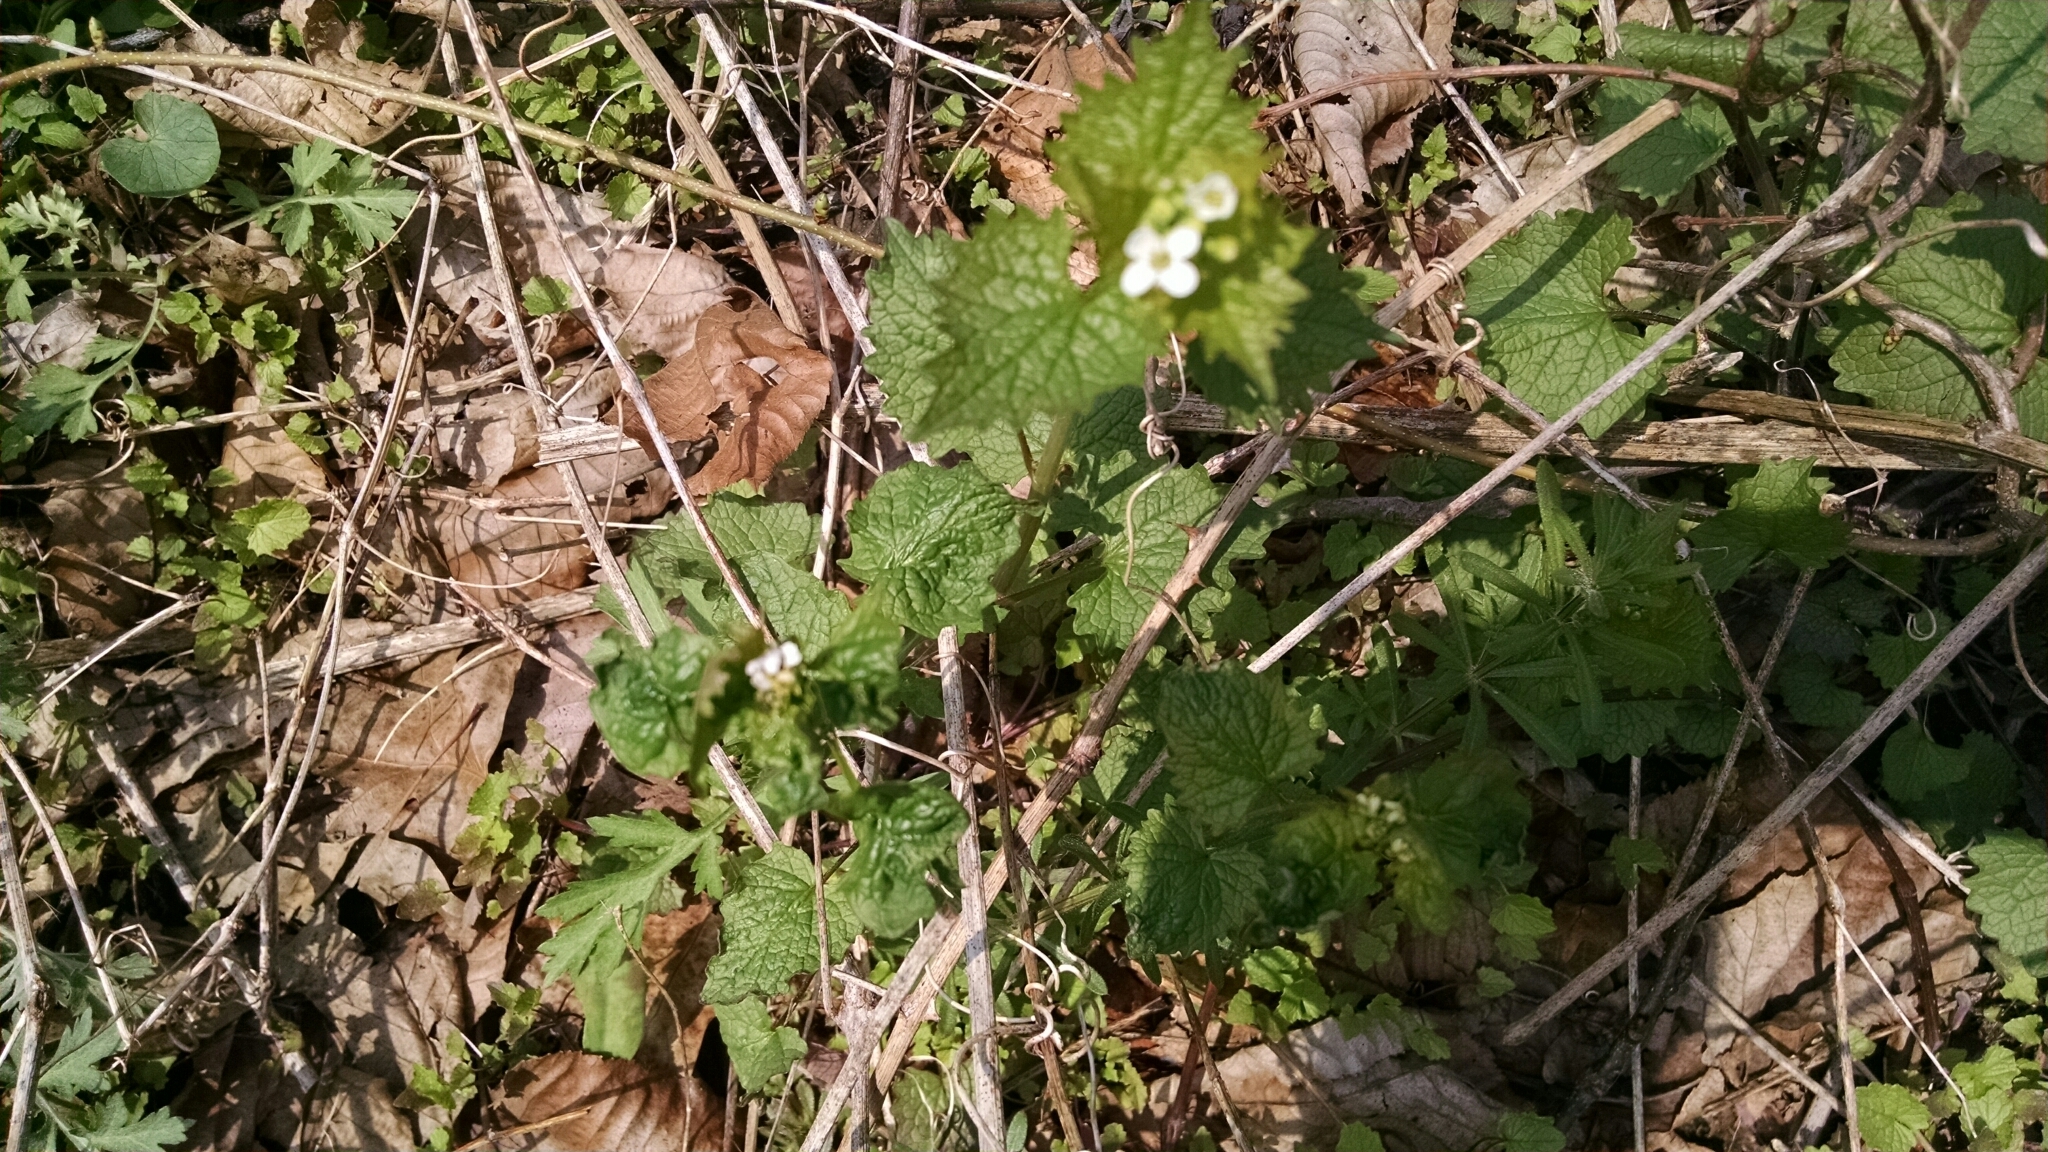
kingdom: Plantae
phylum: Tracheophyta
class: Magnoliopsida
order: Brassicales
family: Brassicaceae
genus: Alliaria
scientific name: Alliaria petiolata
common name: Garlic mustard
